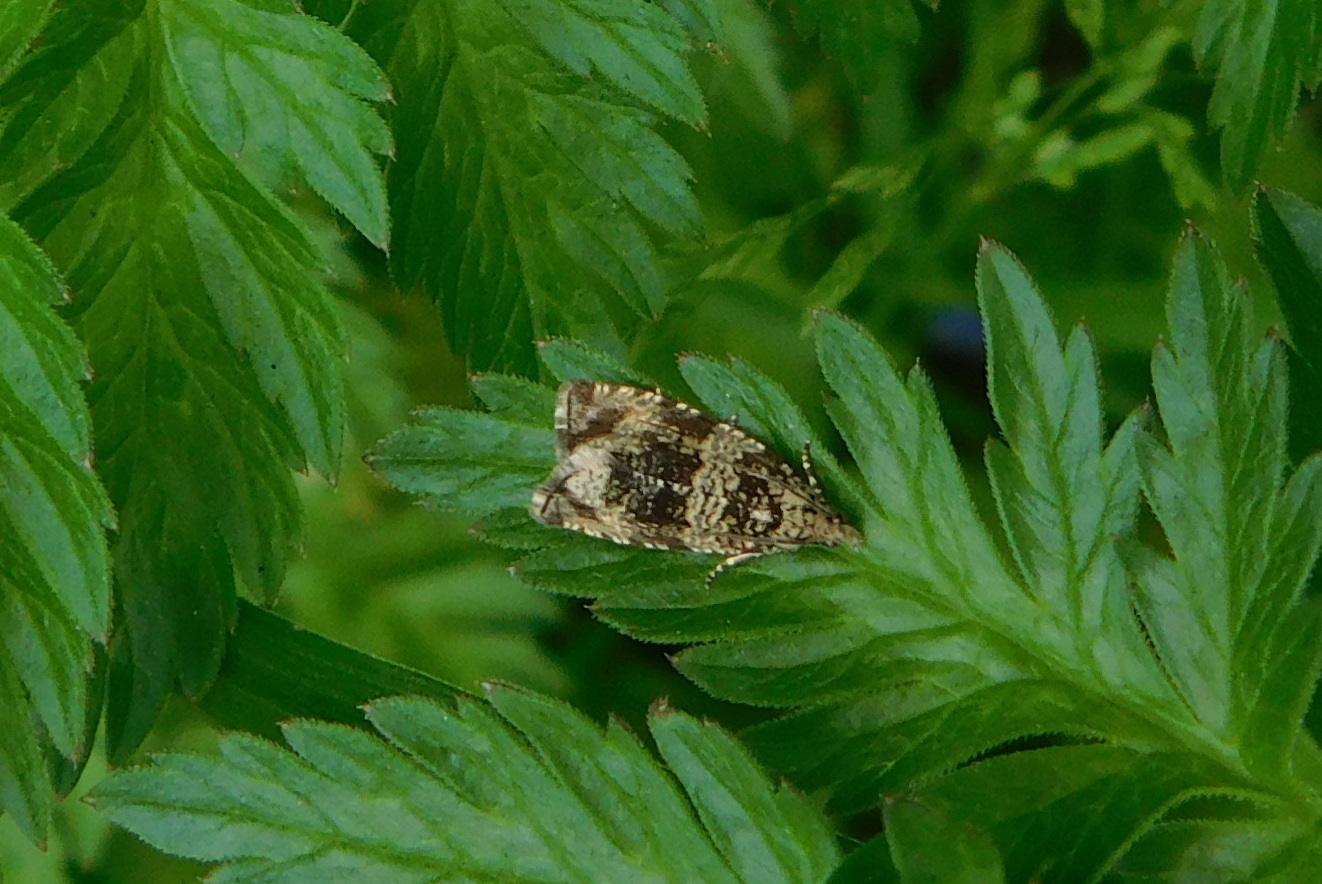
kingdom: Animalia
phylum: Arthropoda
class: Insecta
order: Lepidoptera
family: Tortricidae
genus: Syricoris
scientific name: Syricoris lacunana
